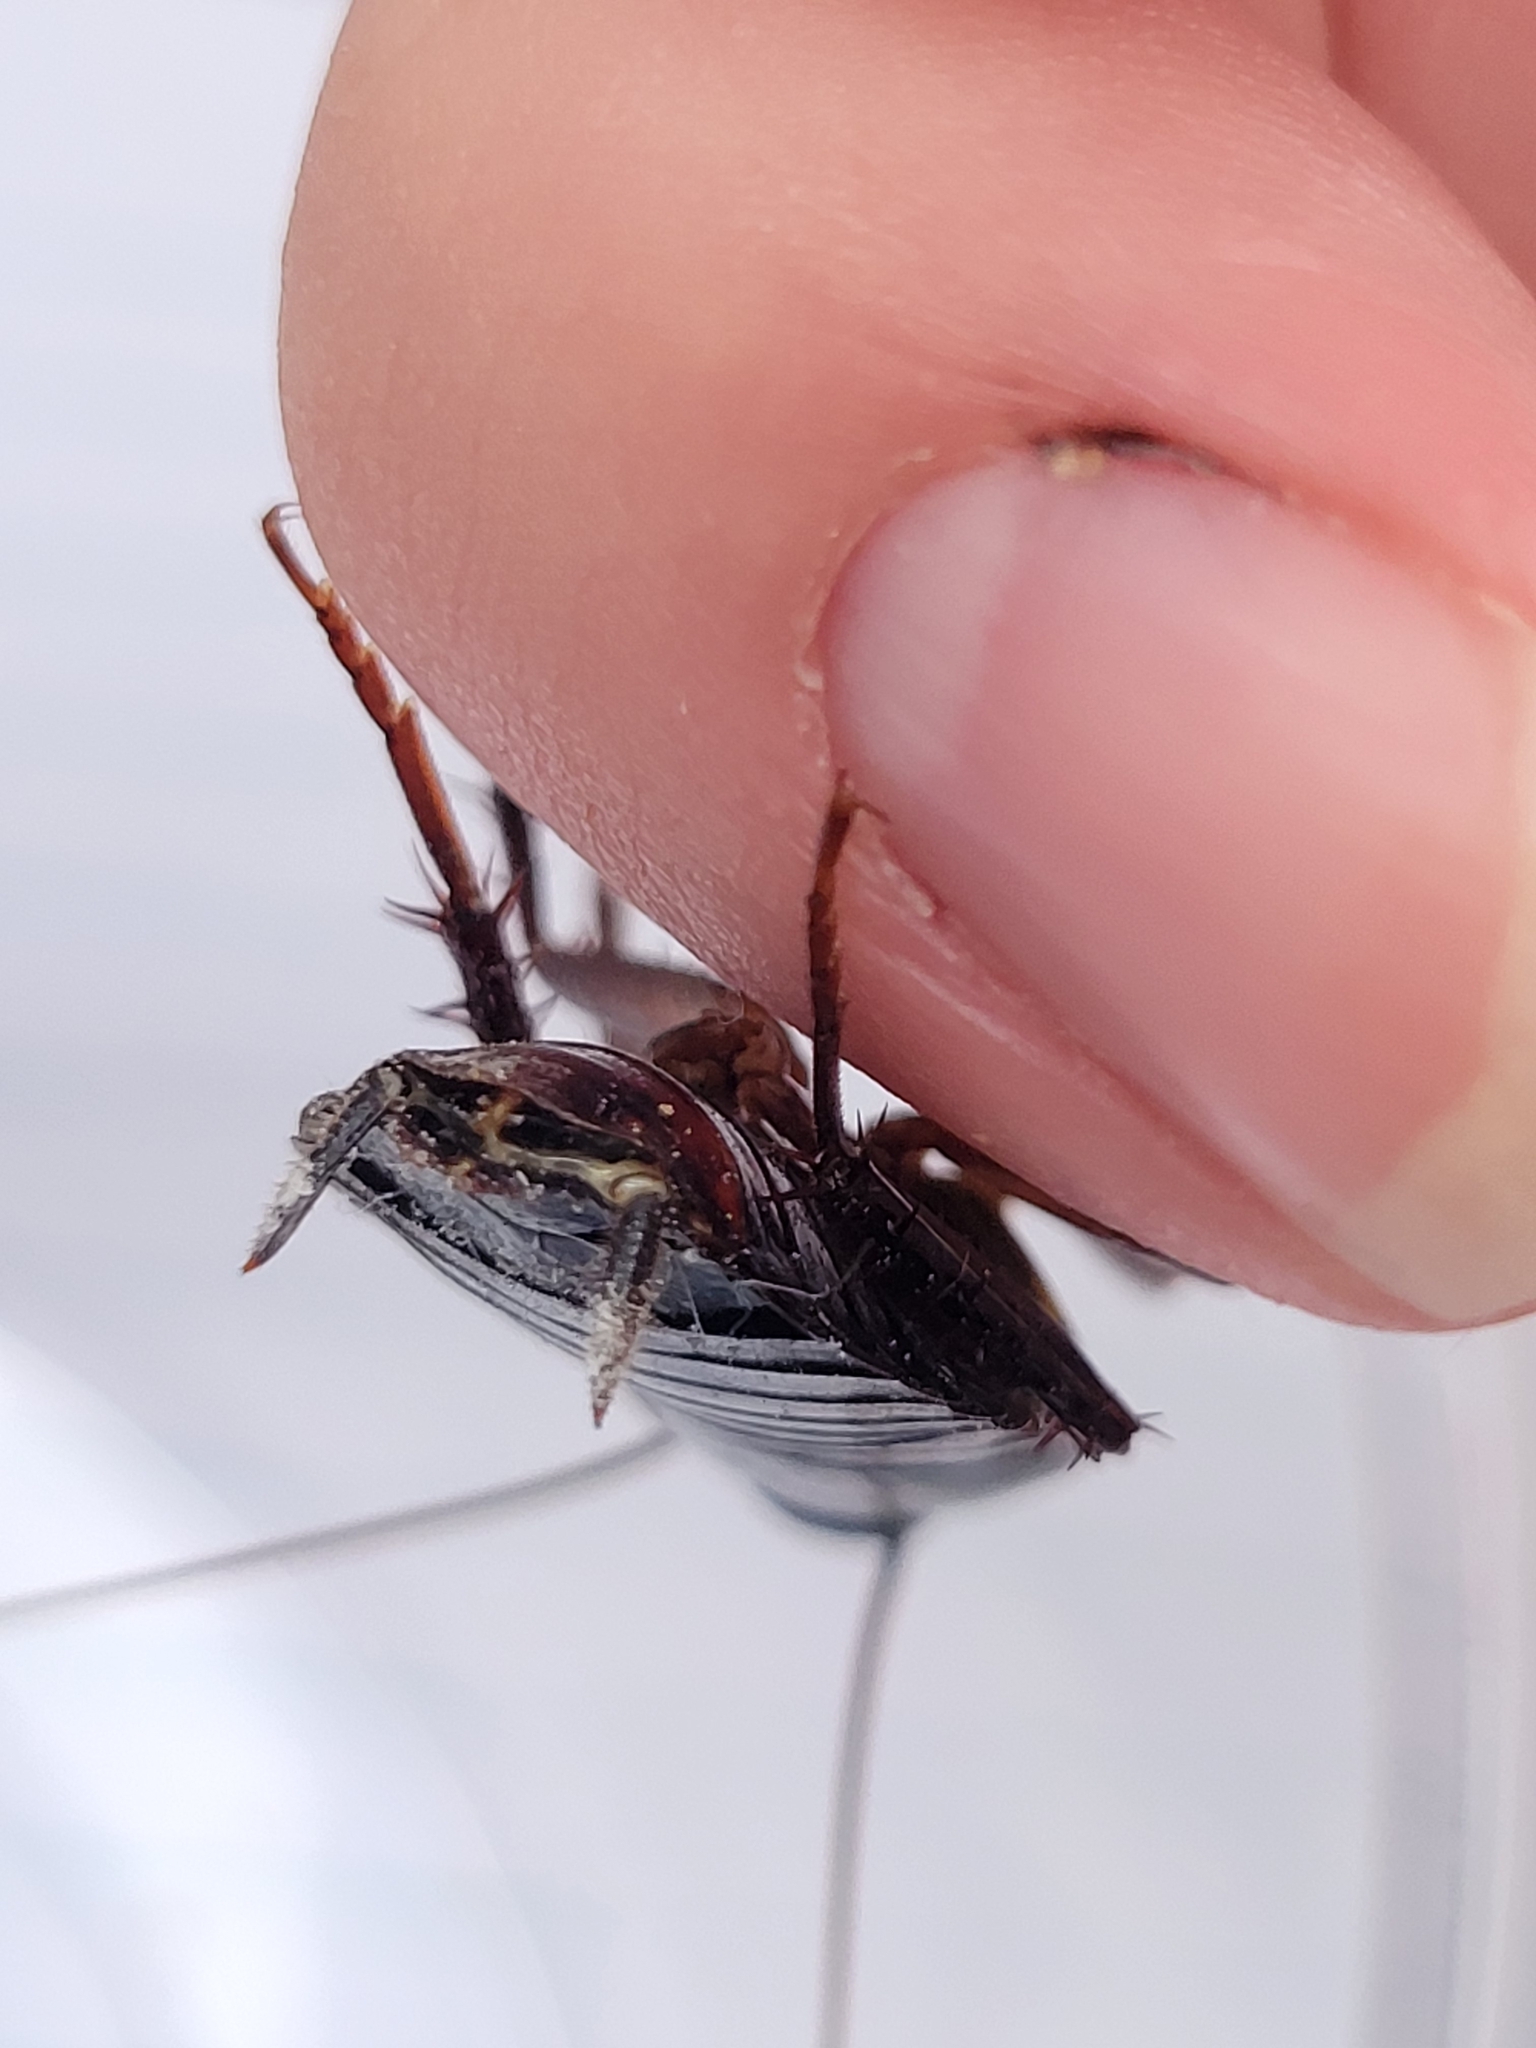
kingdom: Animalia
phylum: Arthropoda
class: Insecta
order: Blattodea
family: Blattidae
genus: Blatta
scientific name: Blatta orientalis
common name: Oriental cockroach
